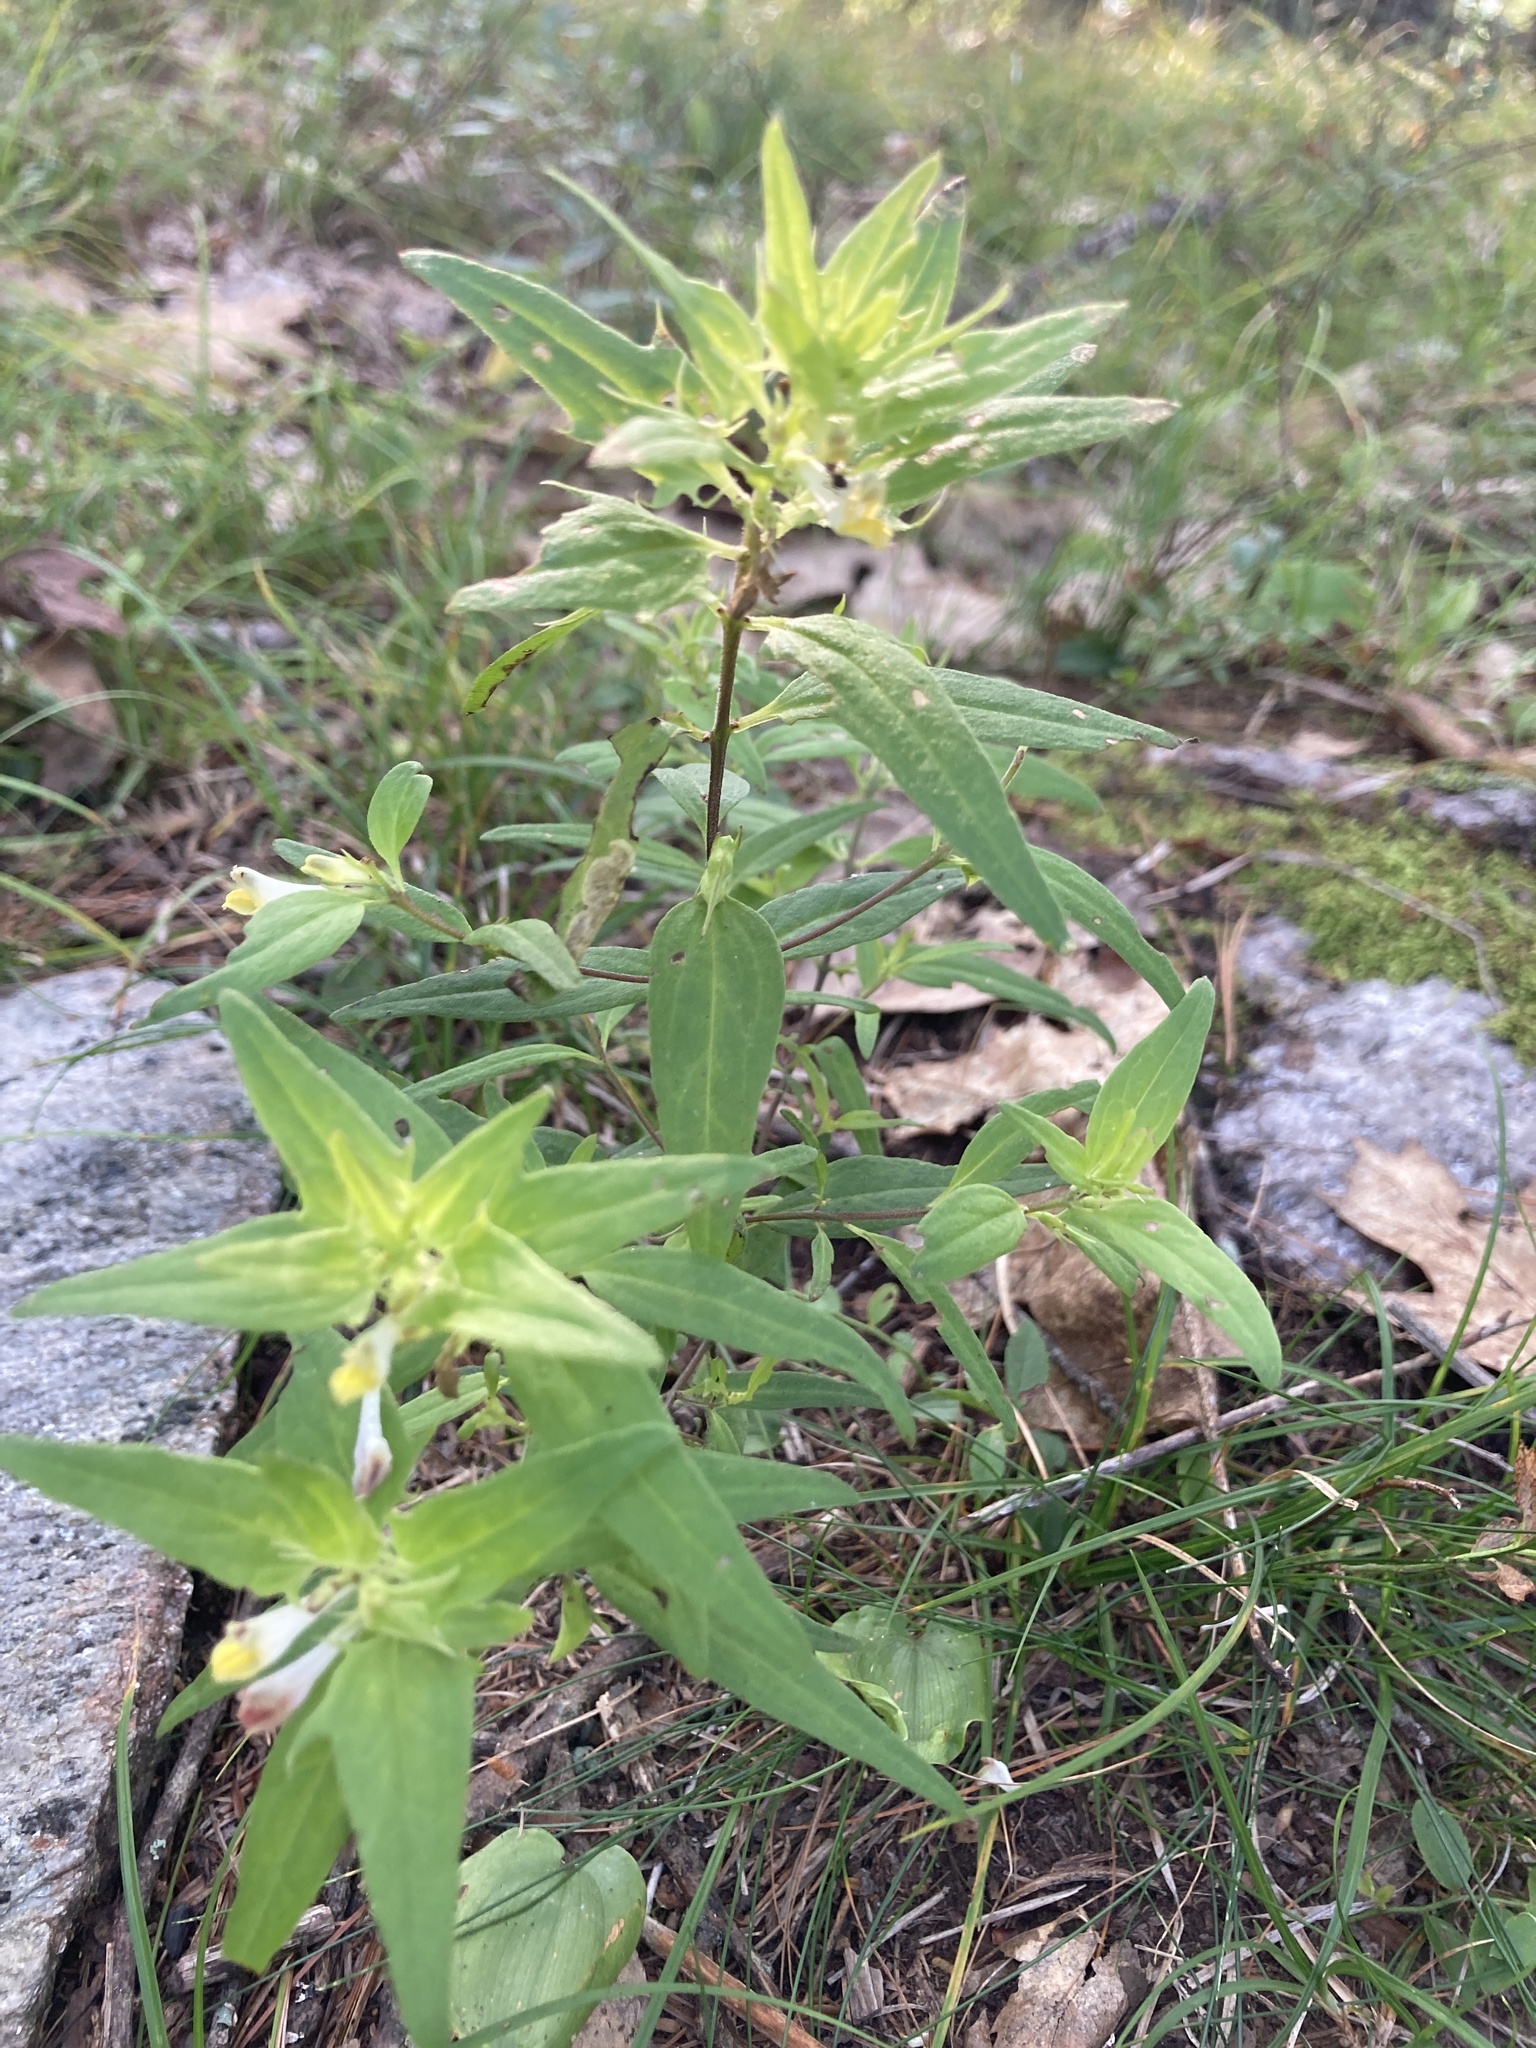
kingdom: Plantae
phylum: Tracheophyta
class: Magnoliopsida
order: Lamiales
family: Orobanchaceae
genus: Melampyrum
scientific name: Melampyrum lineare
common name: American cow-wheat
